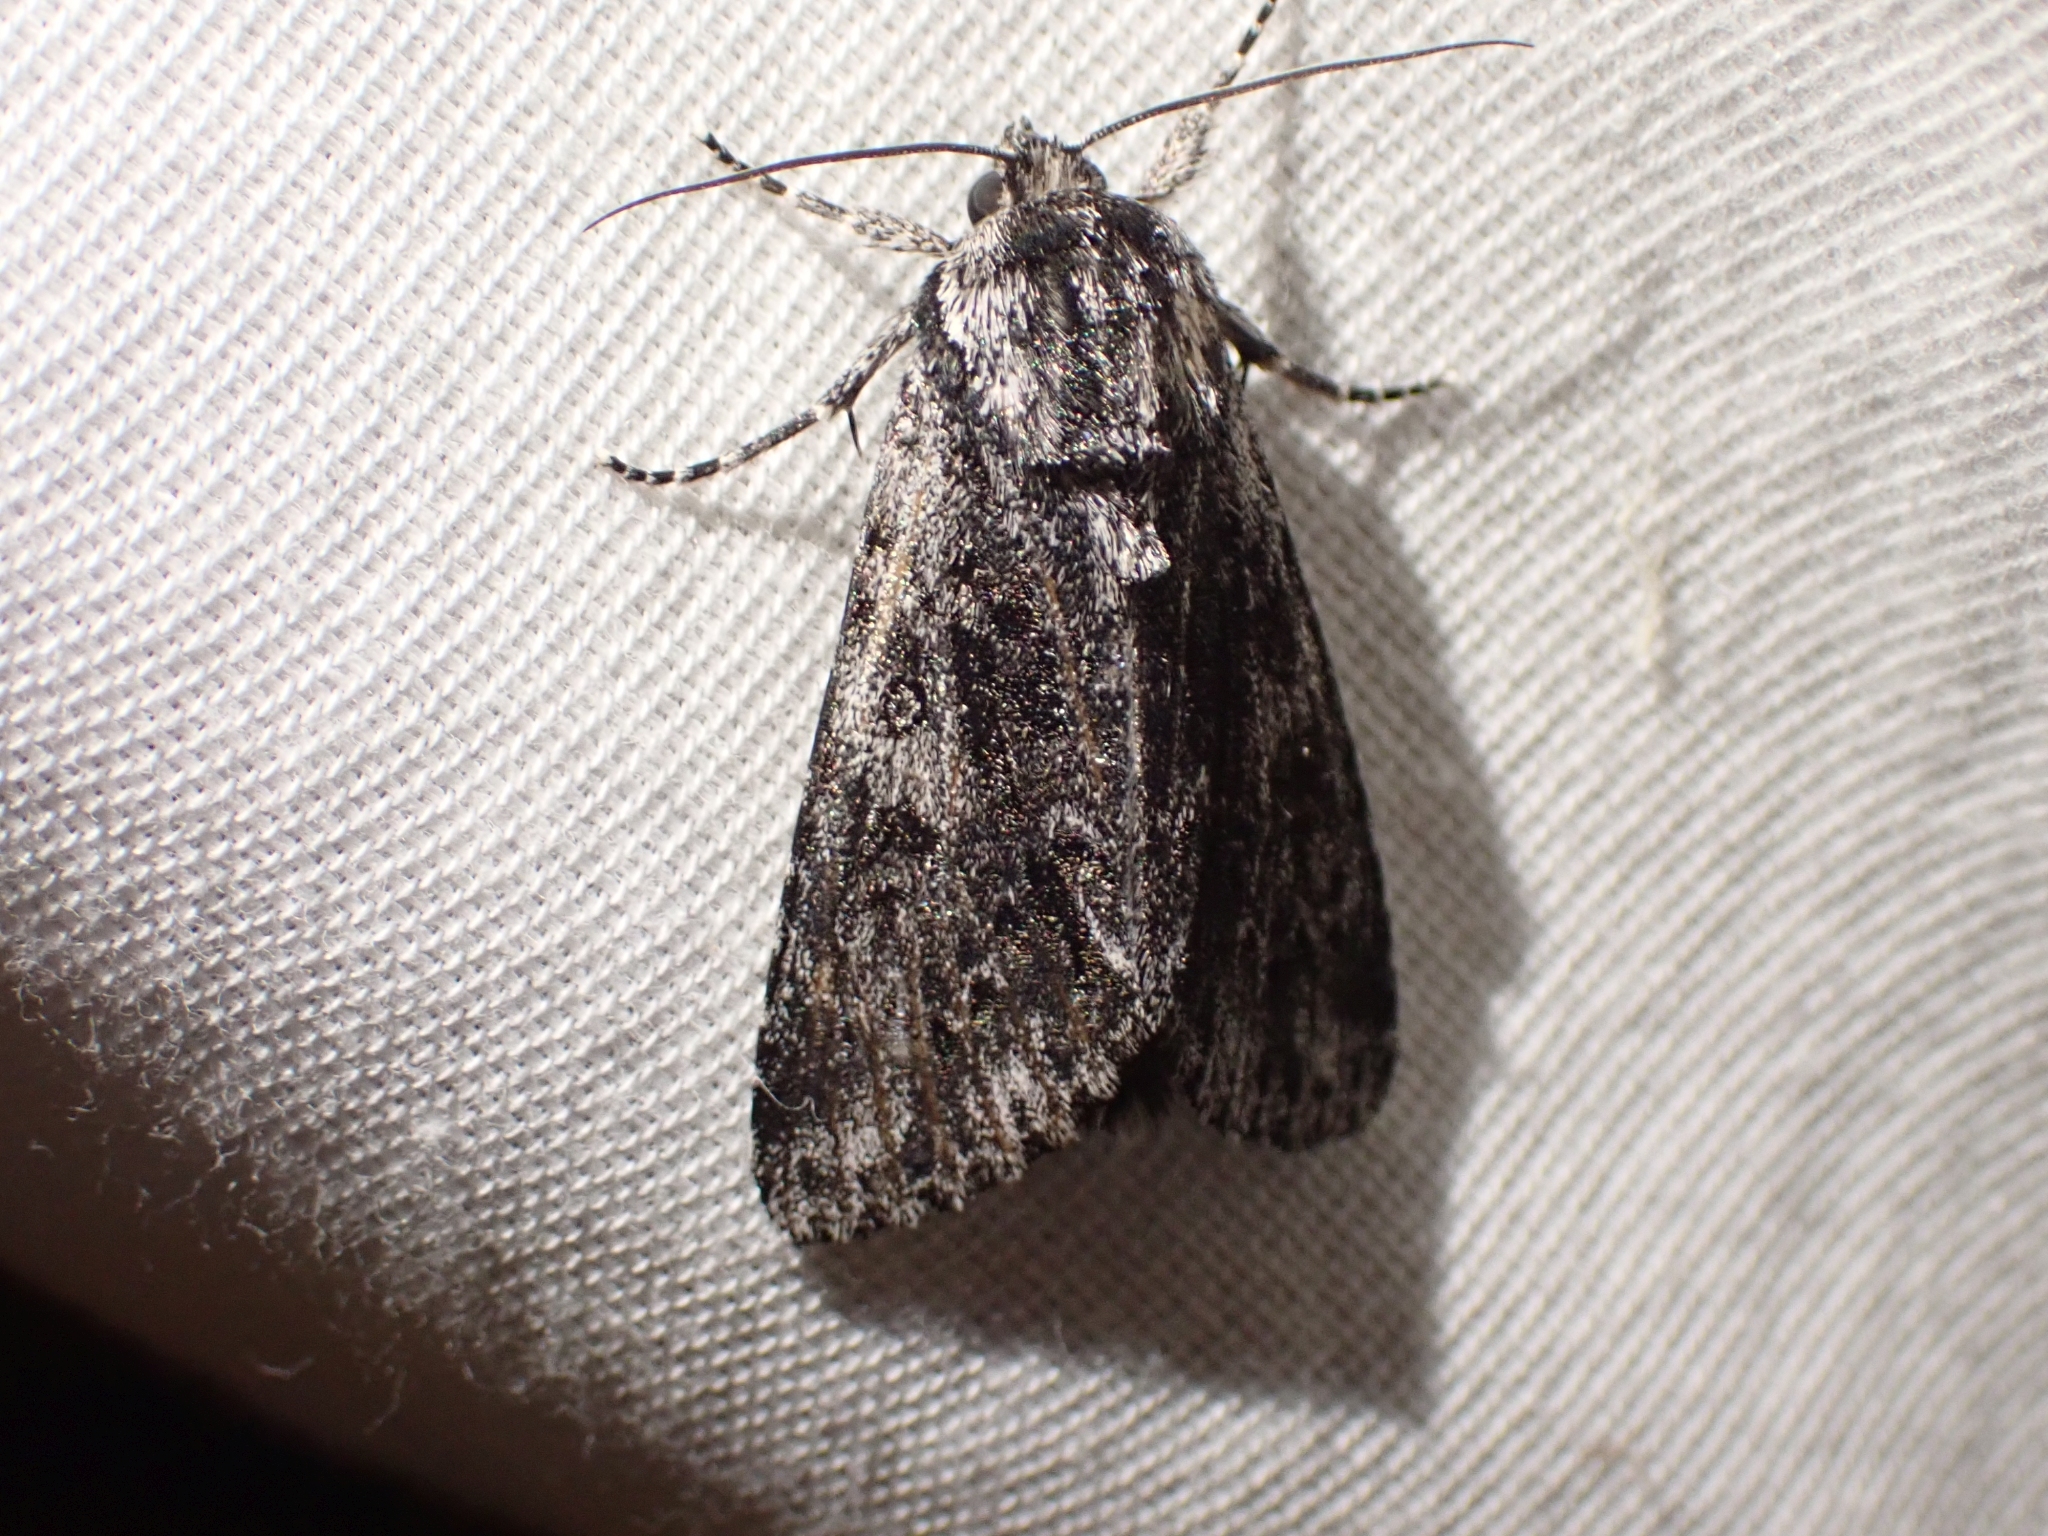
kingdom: Animalia
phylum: Arthropoda
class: Insecta
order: Lepidoptera
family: Noctuidae
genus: Acronicta
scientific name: Acronicta perdita
